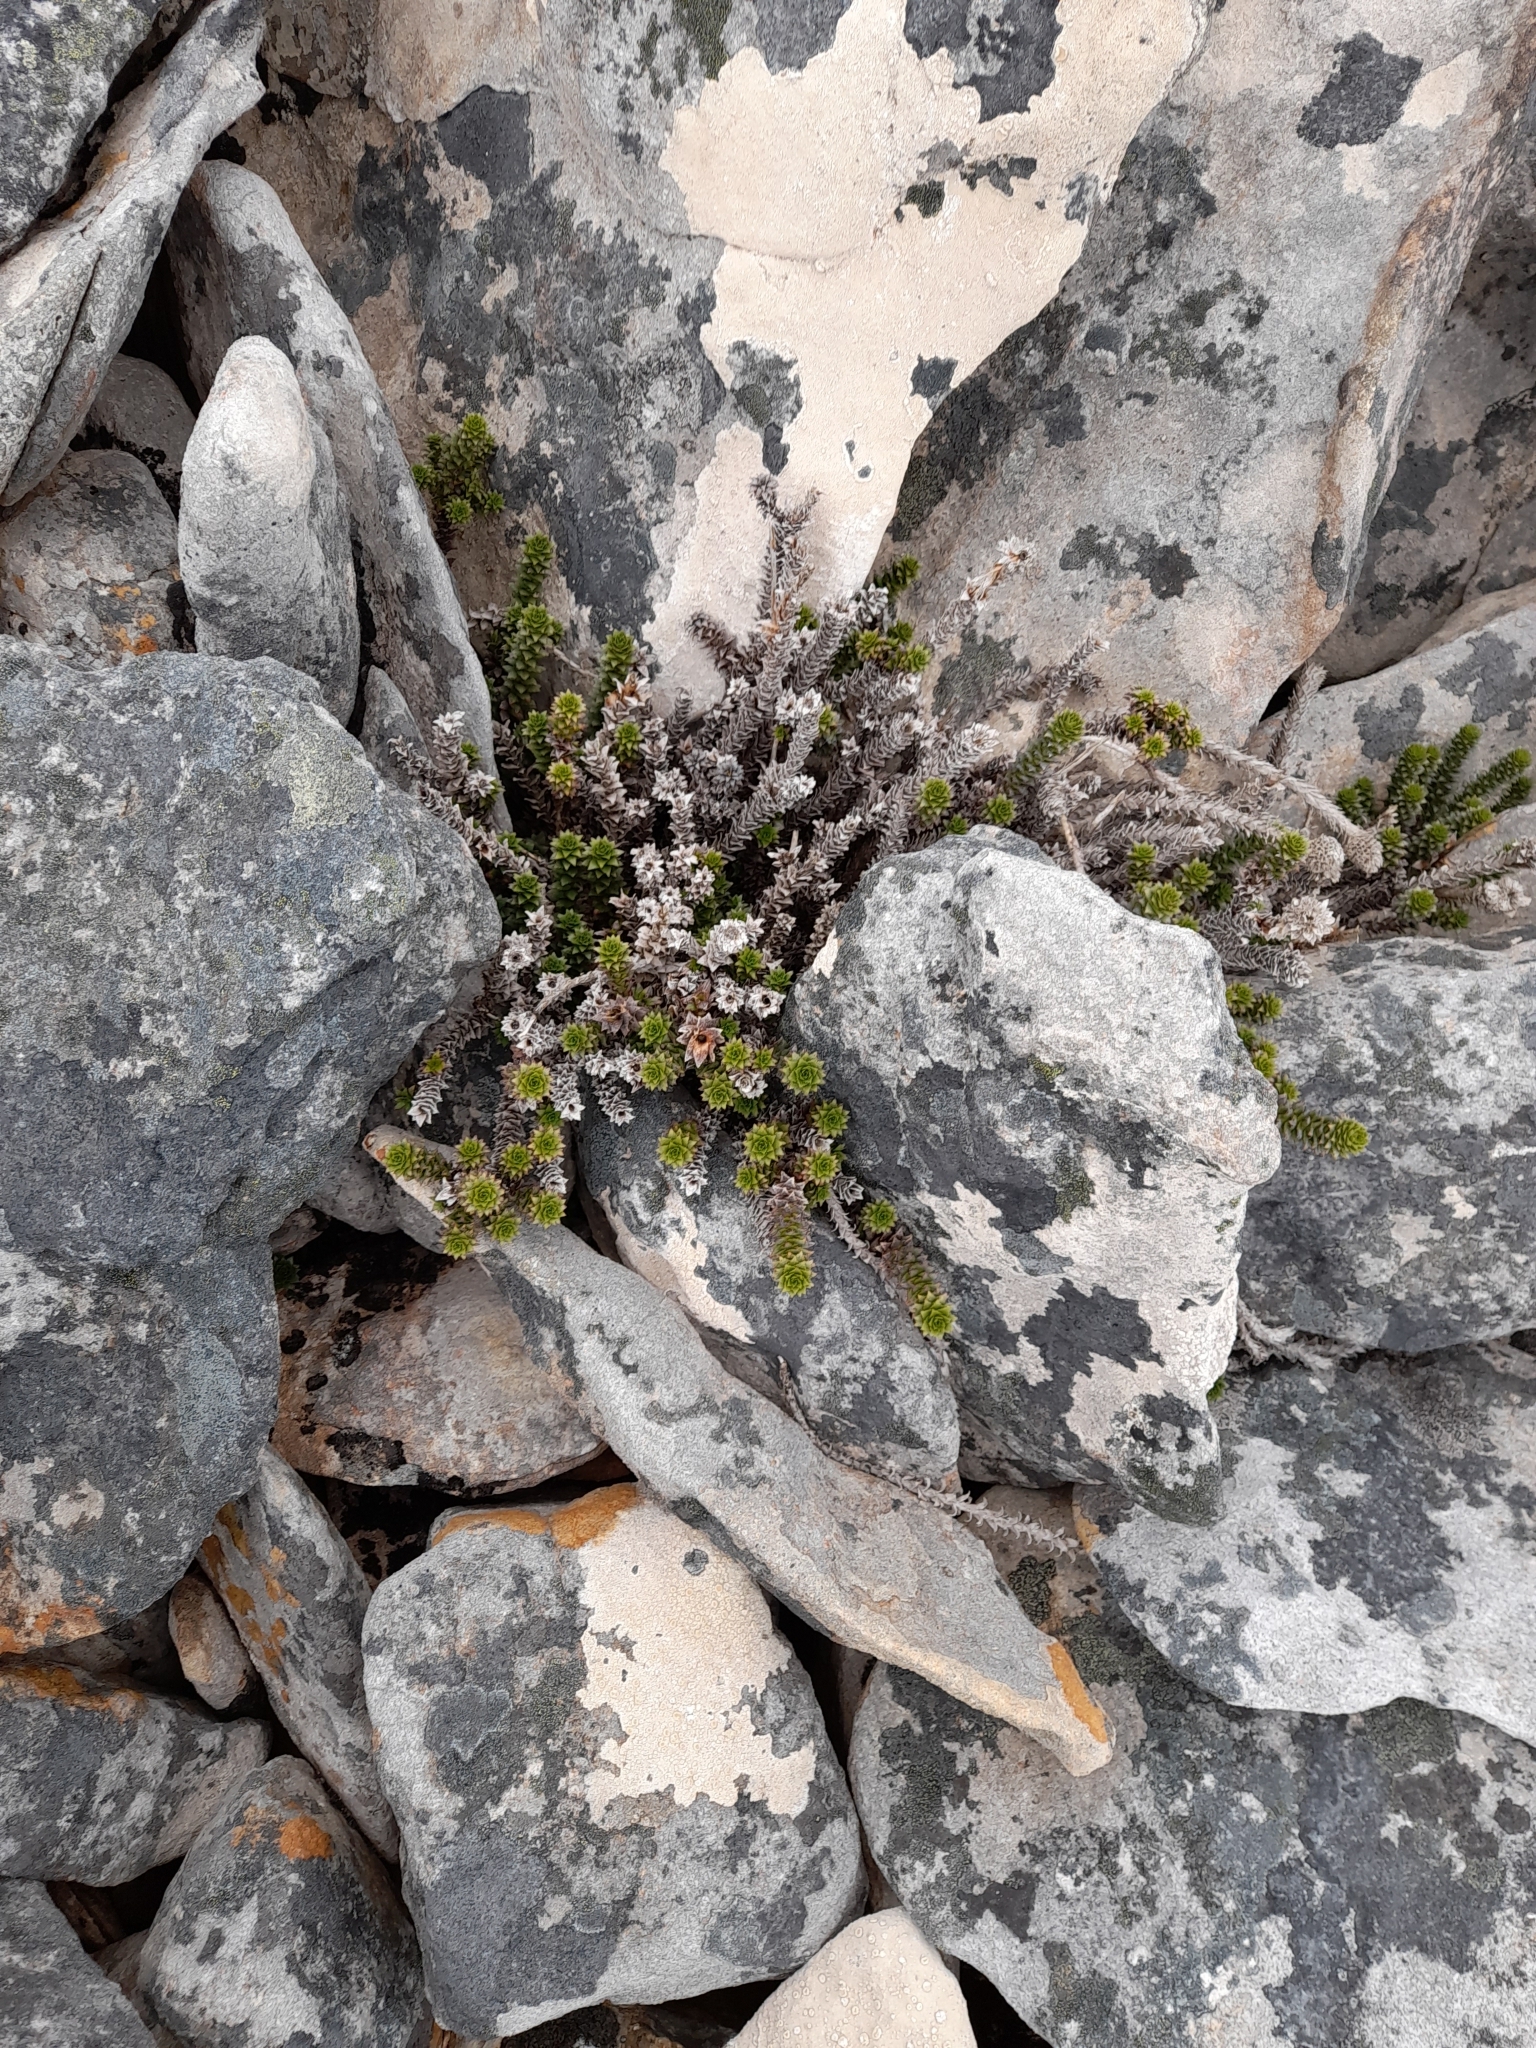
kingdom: Plantae
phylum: Tracheophyta
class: Magnoliopsida
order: Asterales
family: Asteraceae
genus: Nassauvia
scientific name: Nassauvia serpens
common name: Snakeplant
